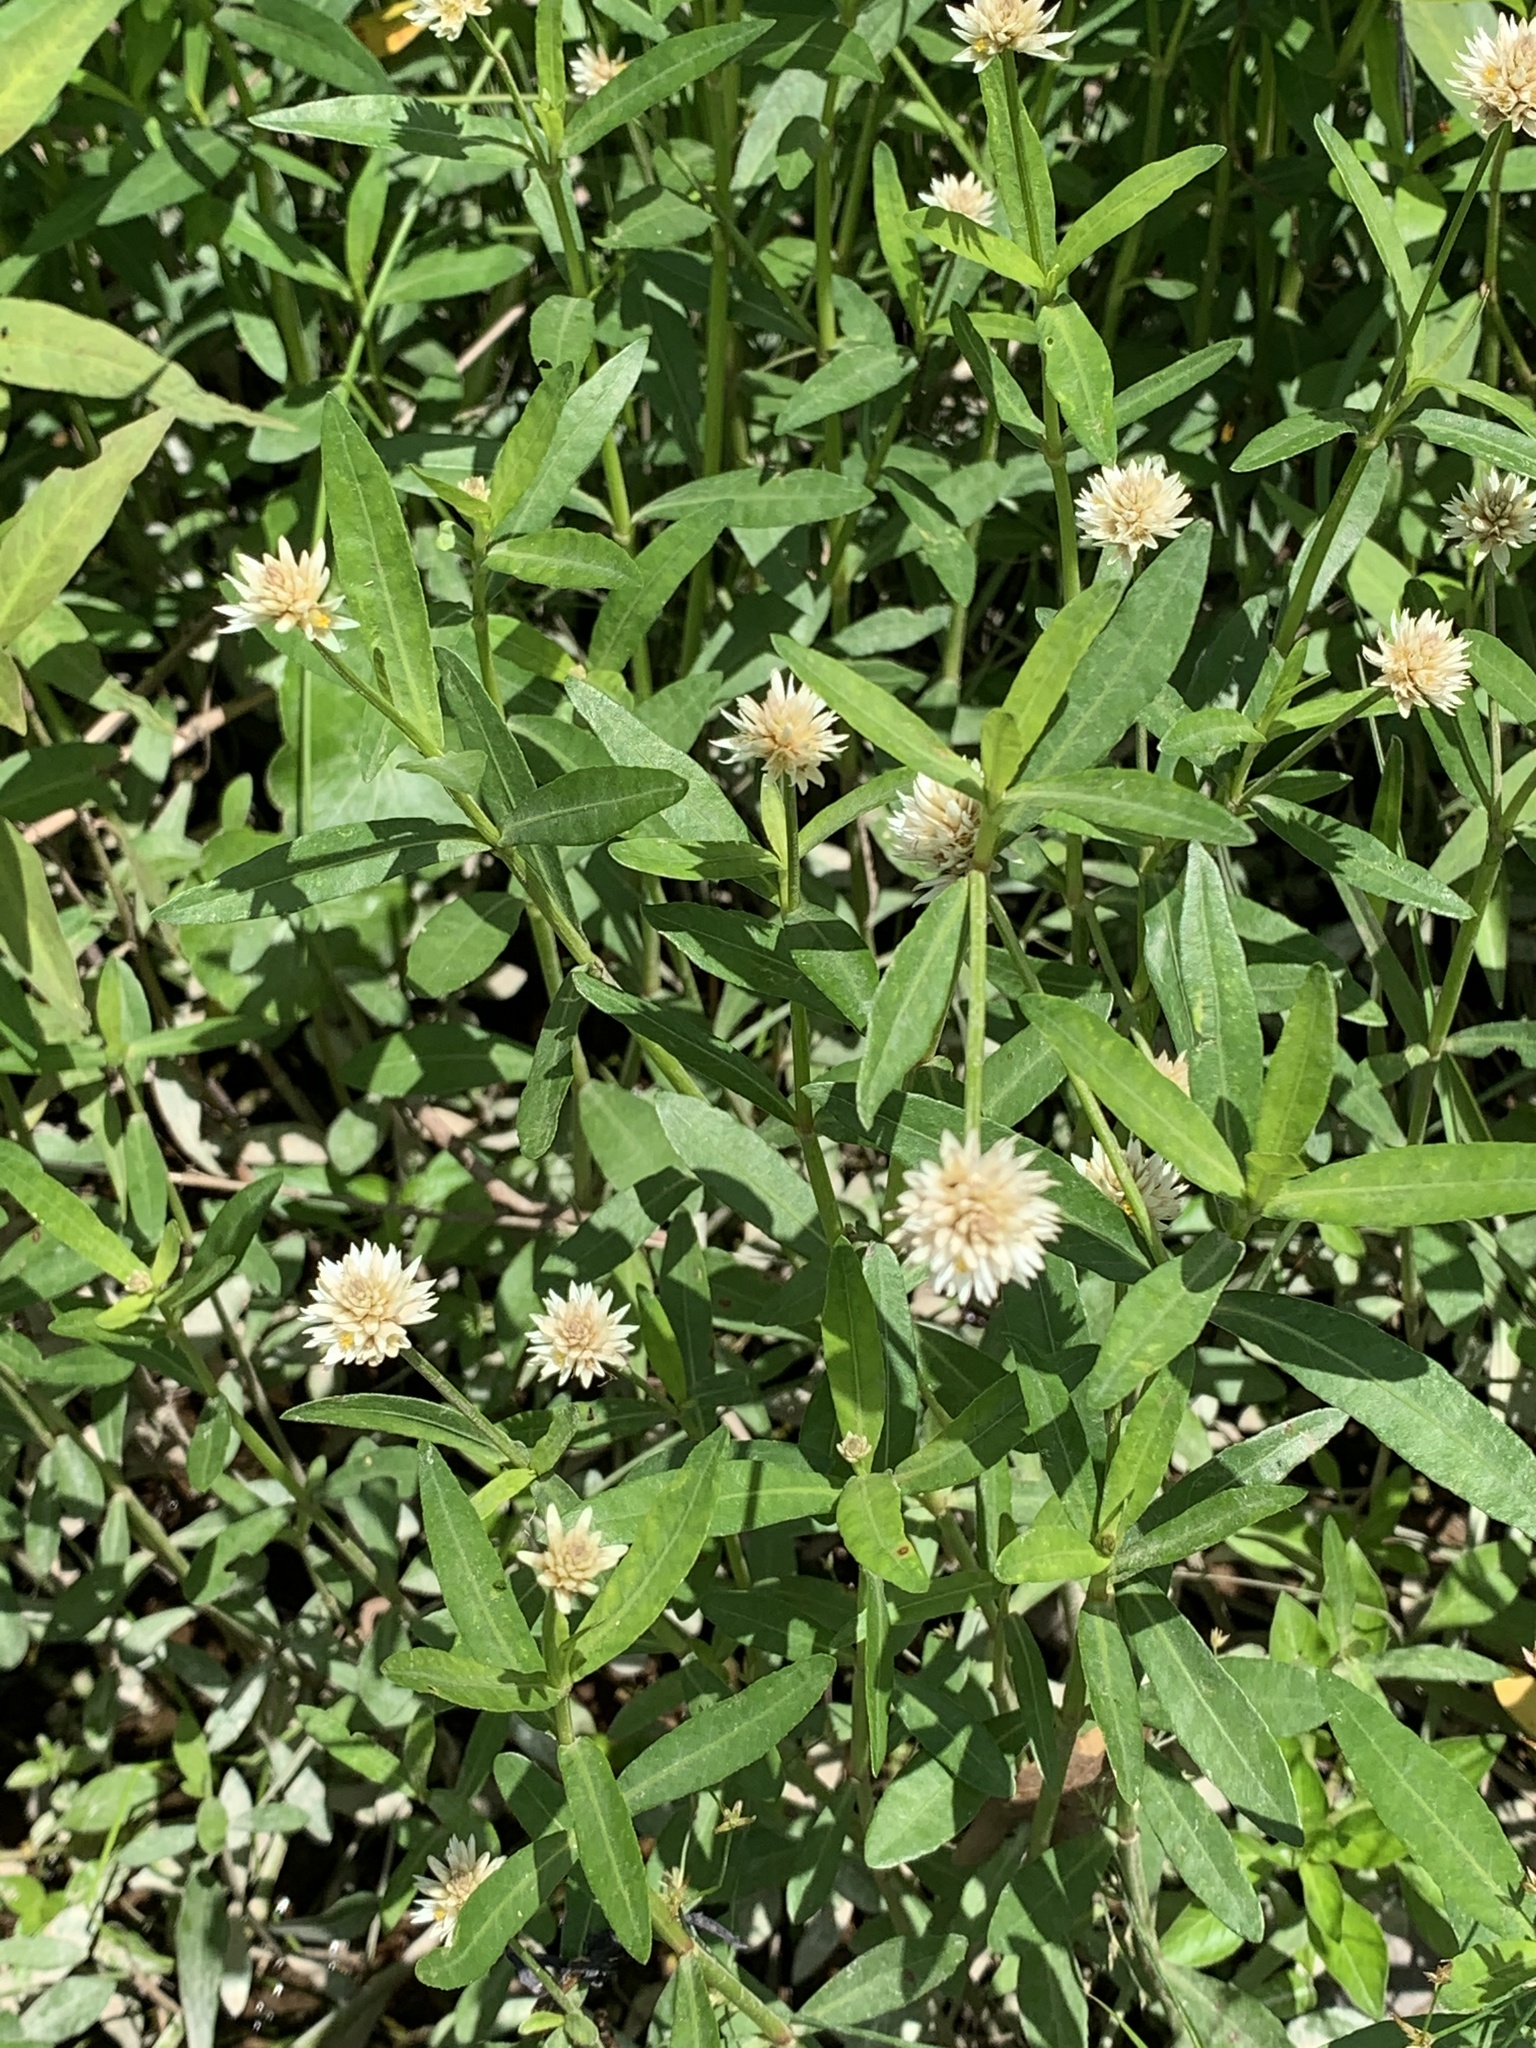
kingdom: Plantae
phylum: Tracheophyta
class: Magnoliopsida
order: Caryophyllales
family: Amaranthaceae
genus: Alternanthera
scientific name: Alternanthera philoxeroides
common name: Alligatorweed
